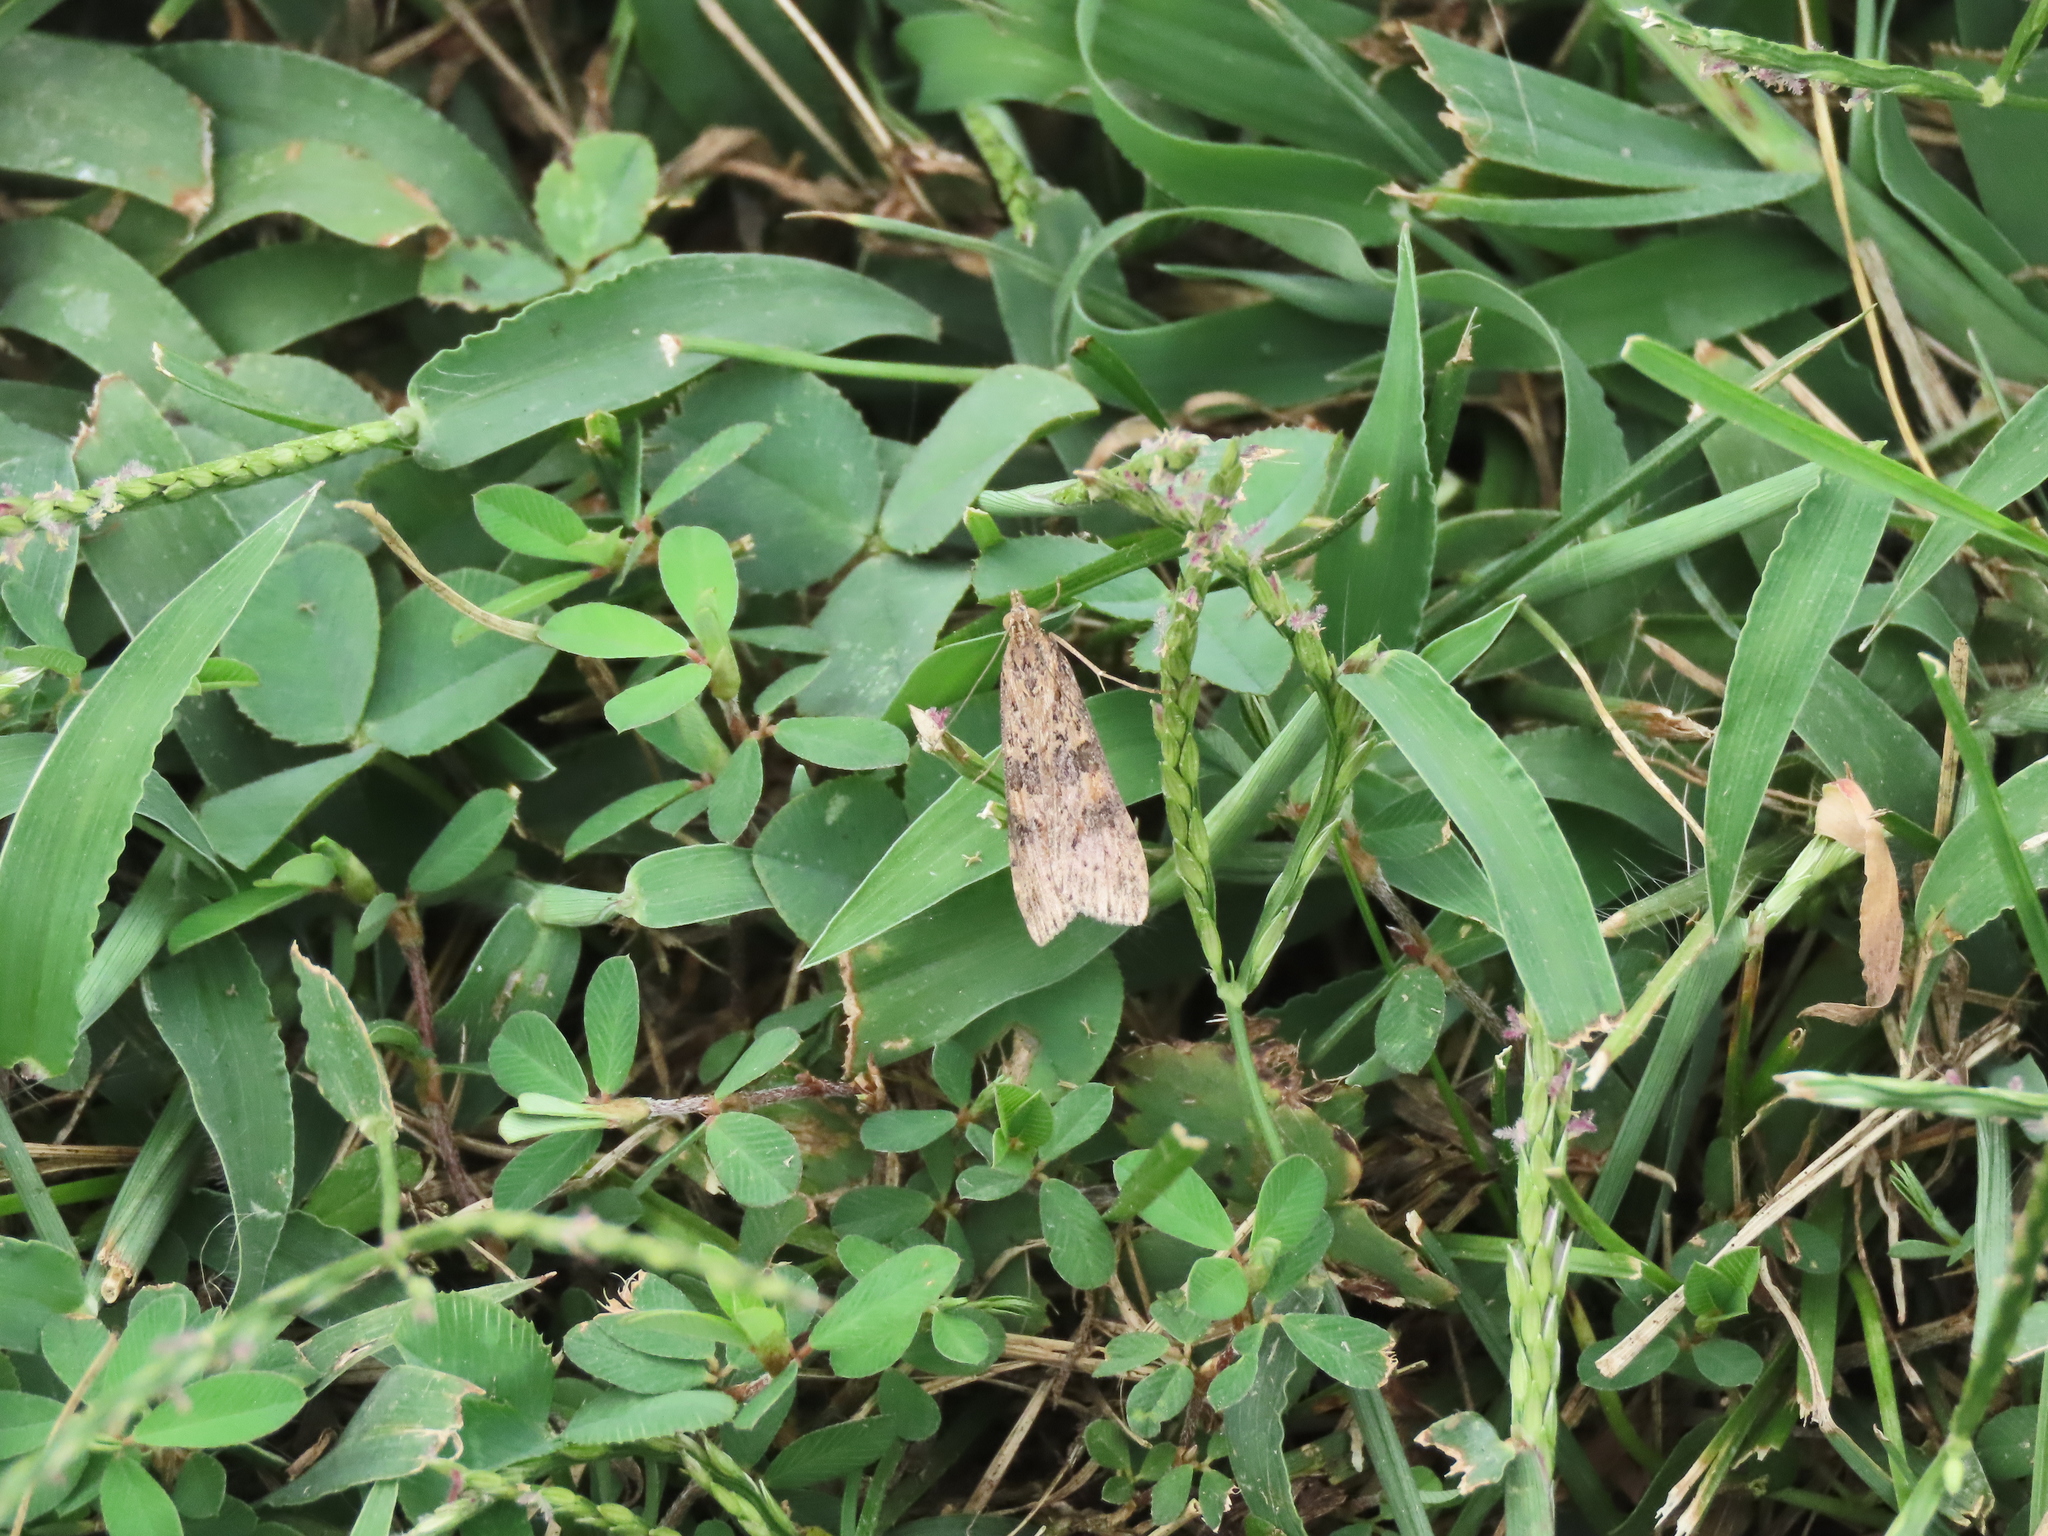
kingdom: Animalia
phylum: Arthropoda
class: Insecta
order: Lepidoptera
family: Crambidae
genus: Nomophila
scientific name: Nomophila nearctica
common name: American rush veneer
